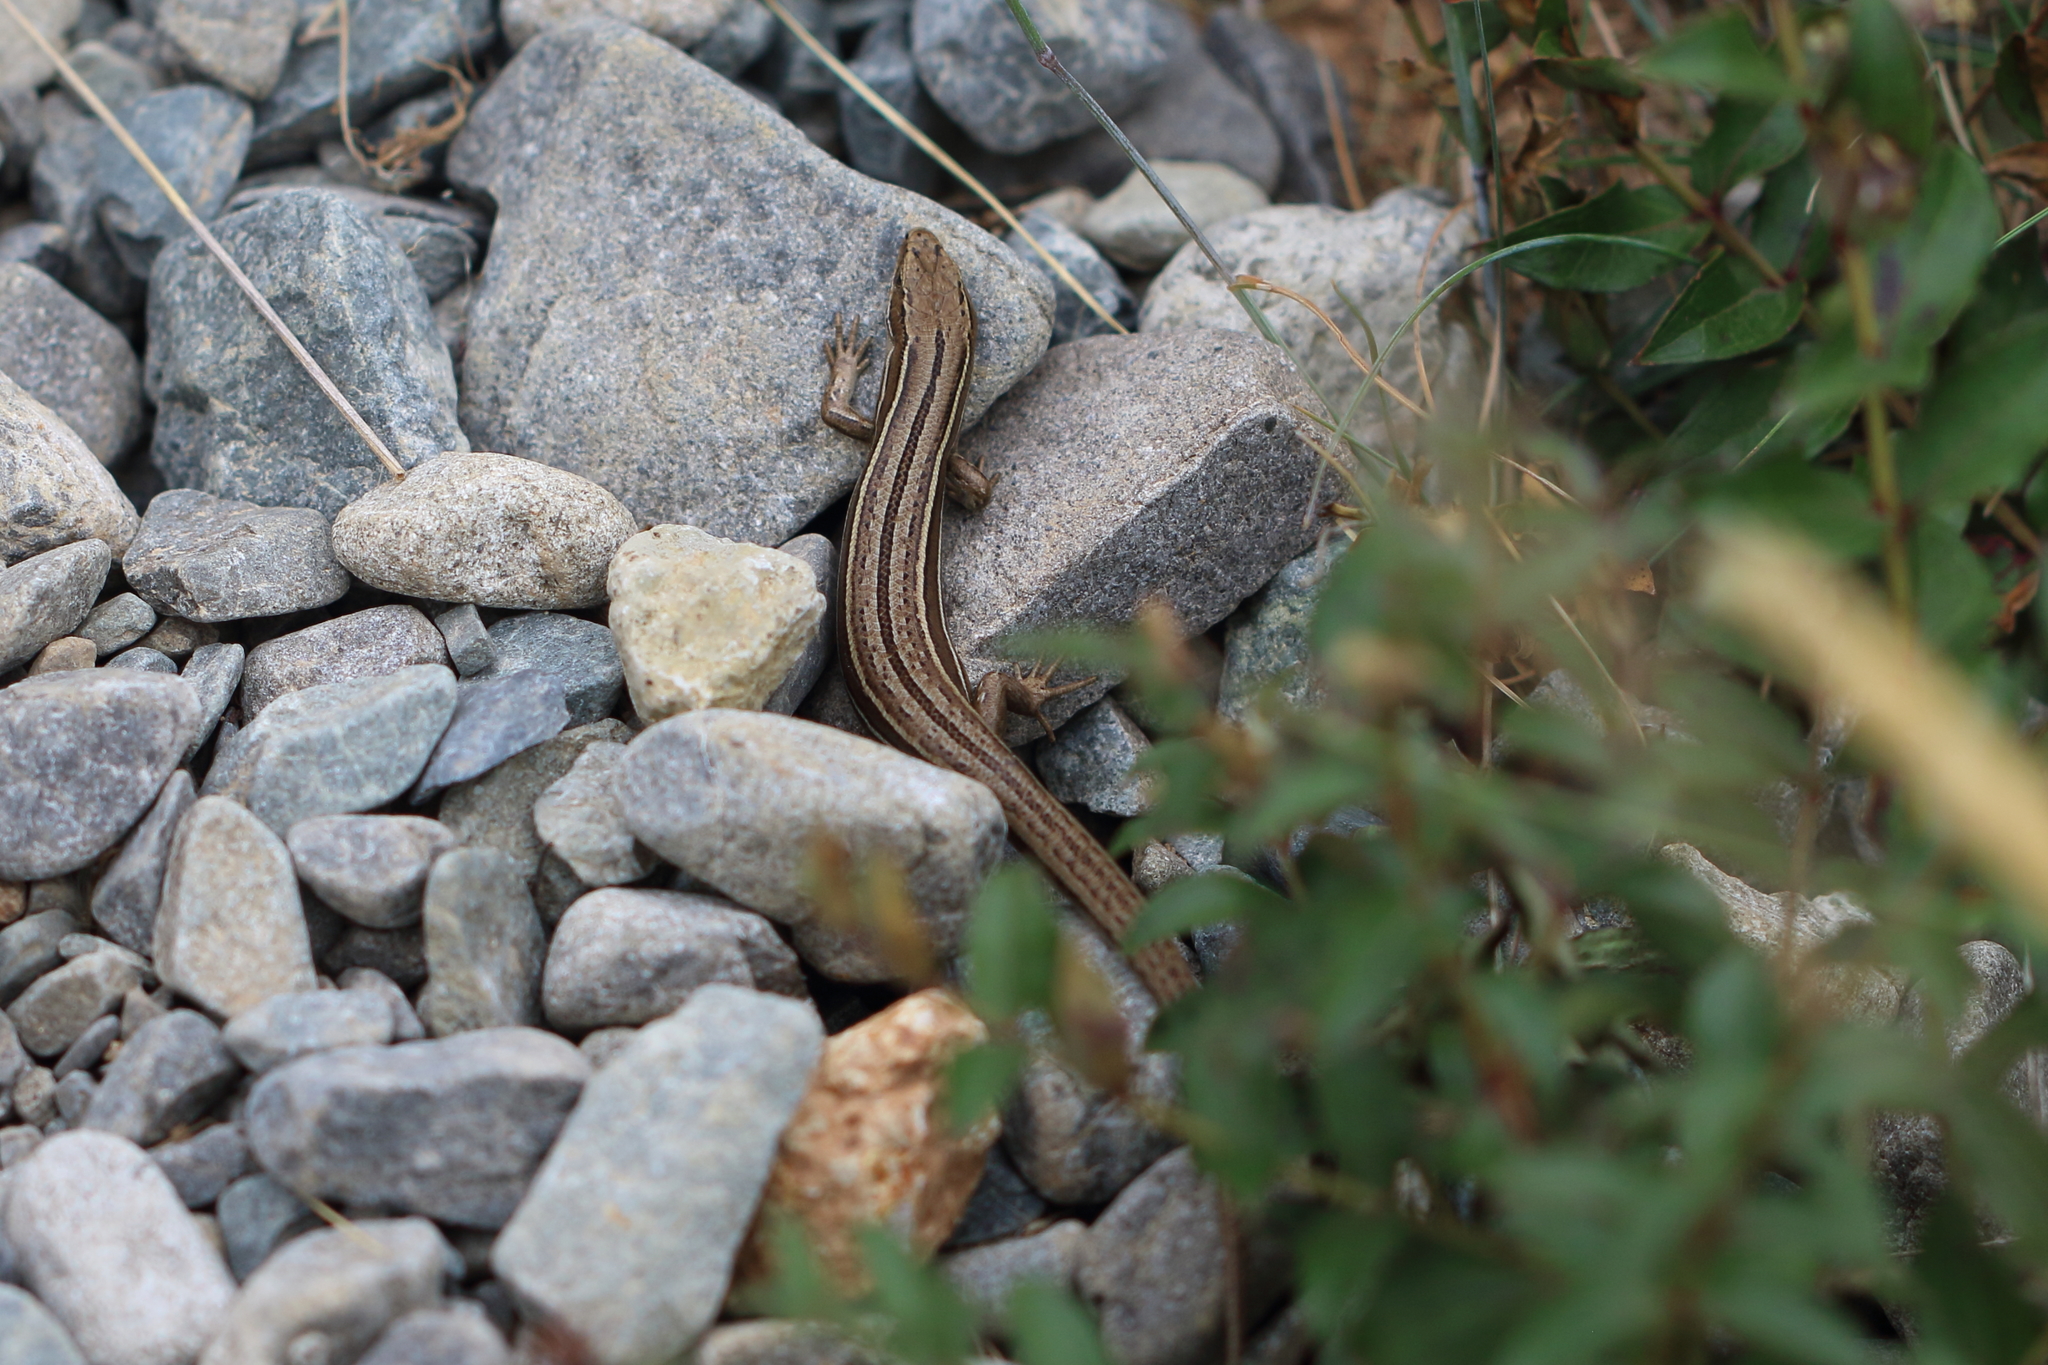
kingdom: Animalia
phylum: Chordata
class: Squamata
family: Scincidae
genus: Oligosoma
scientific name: Oligosoma maccanni
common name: Mccann’s skink
